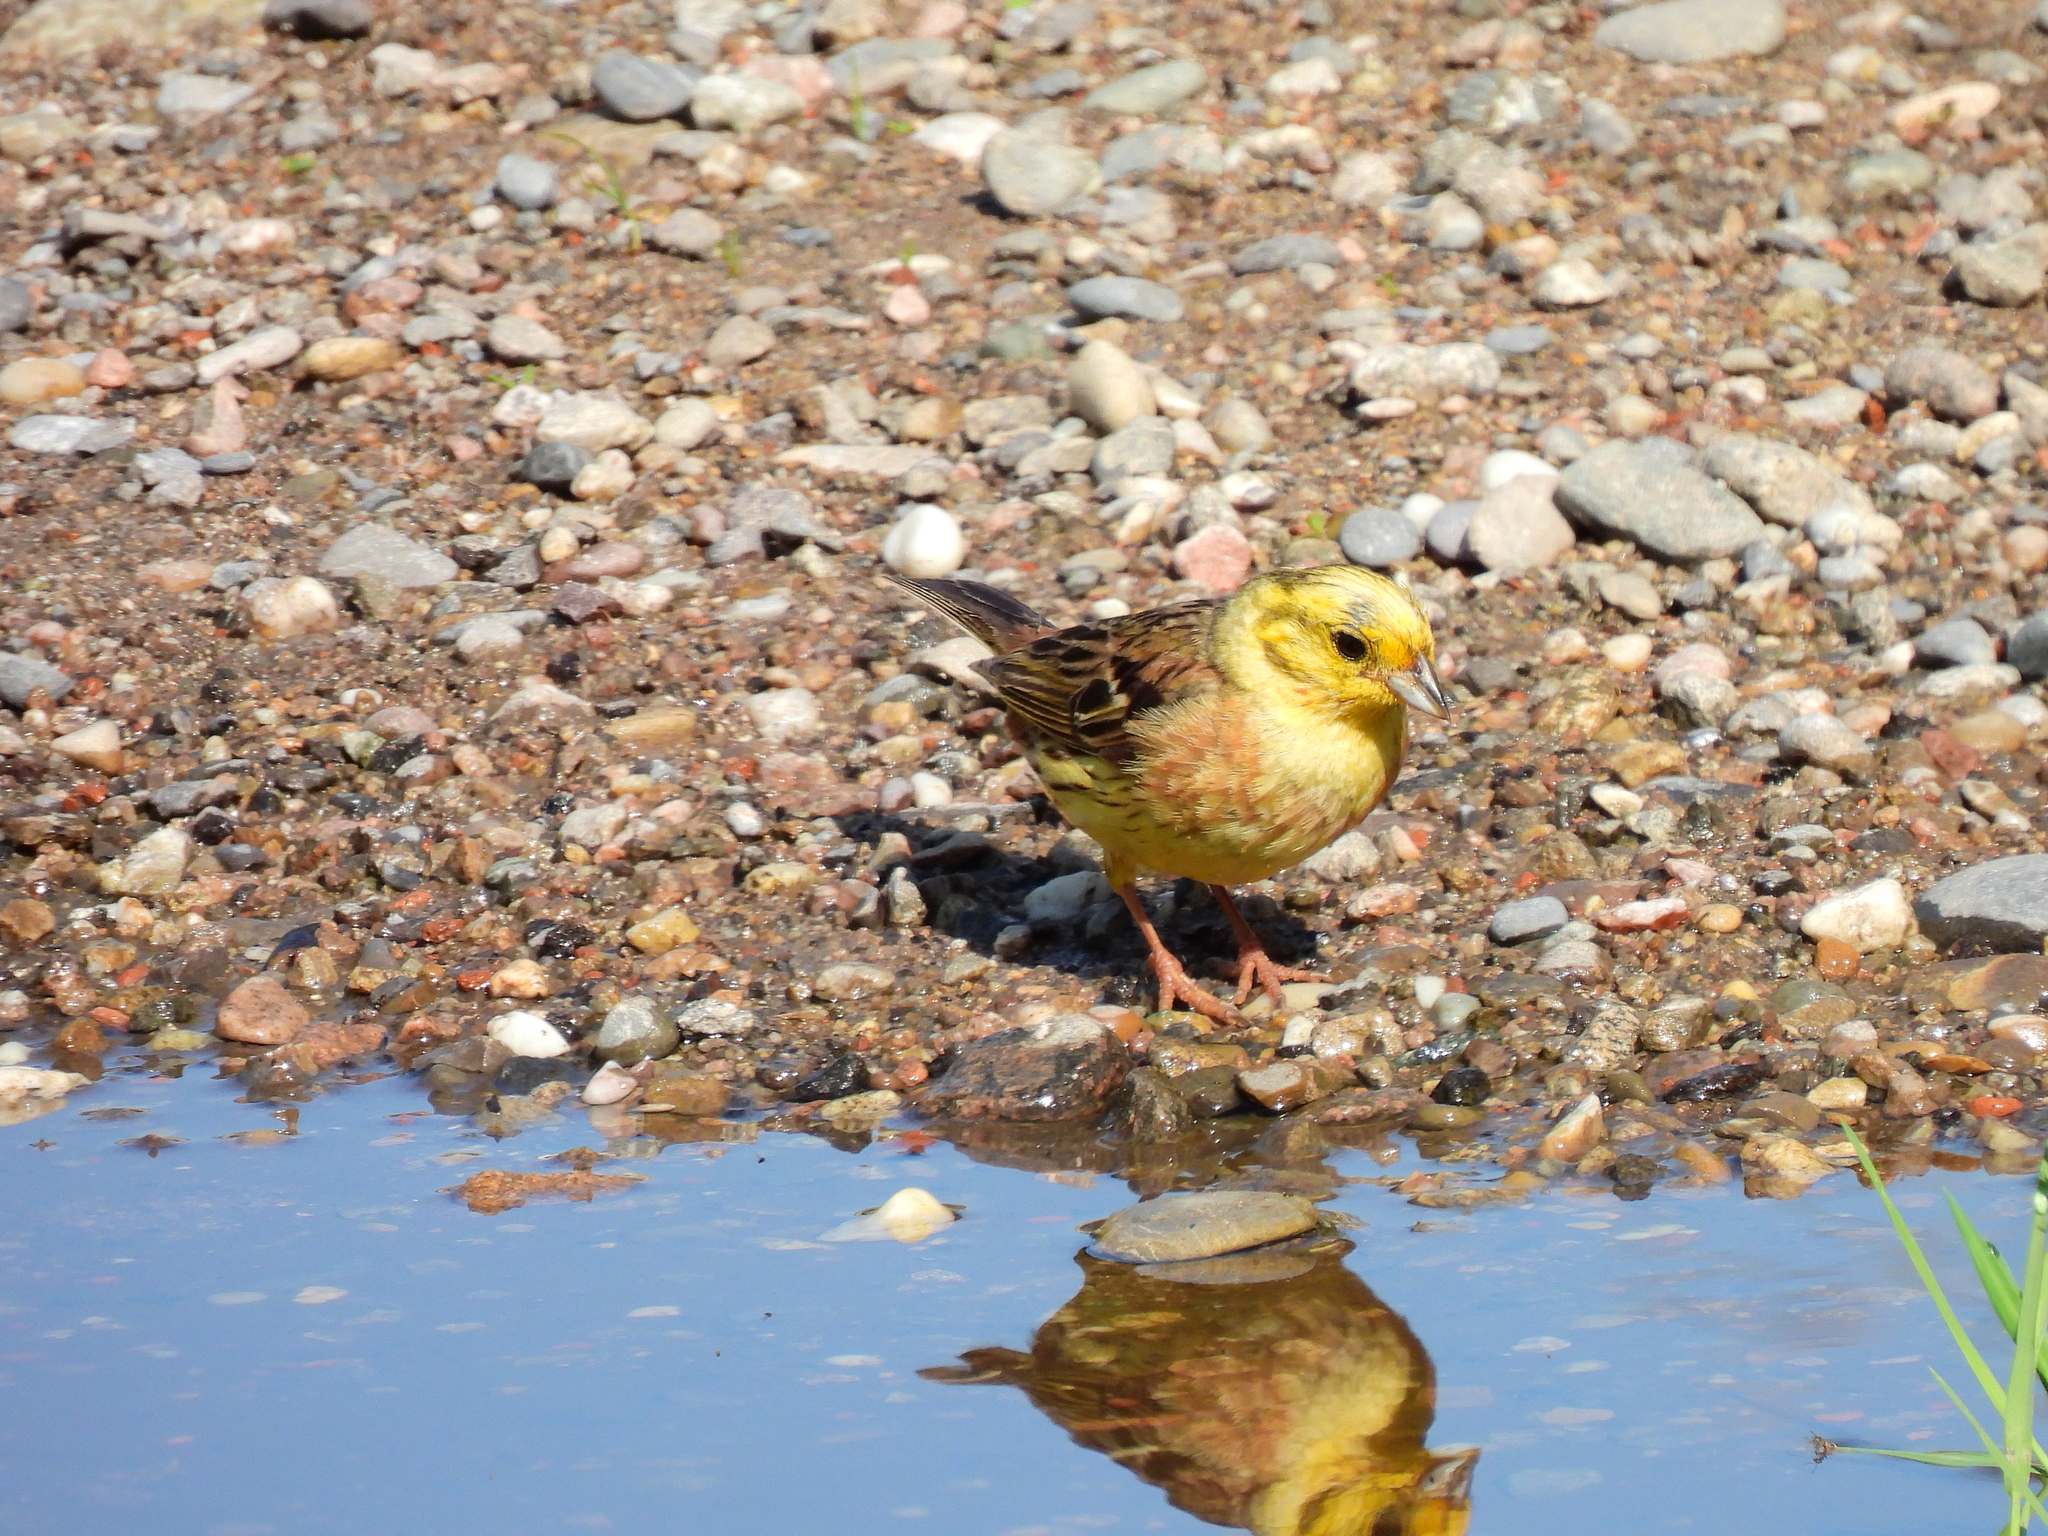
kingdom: Animalia
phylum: Chordata
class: Aves
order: Passeriformes
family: Emberizidae
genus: Emberiza
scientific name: Emberiza citrinella
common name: Yellowhammer
